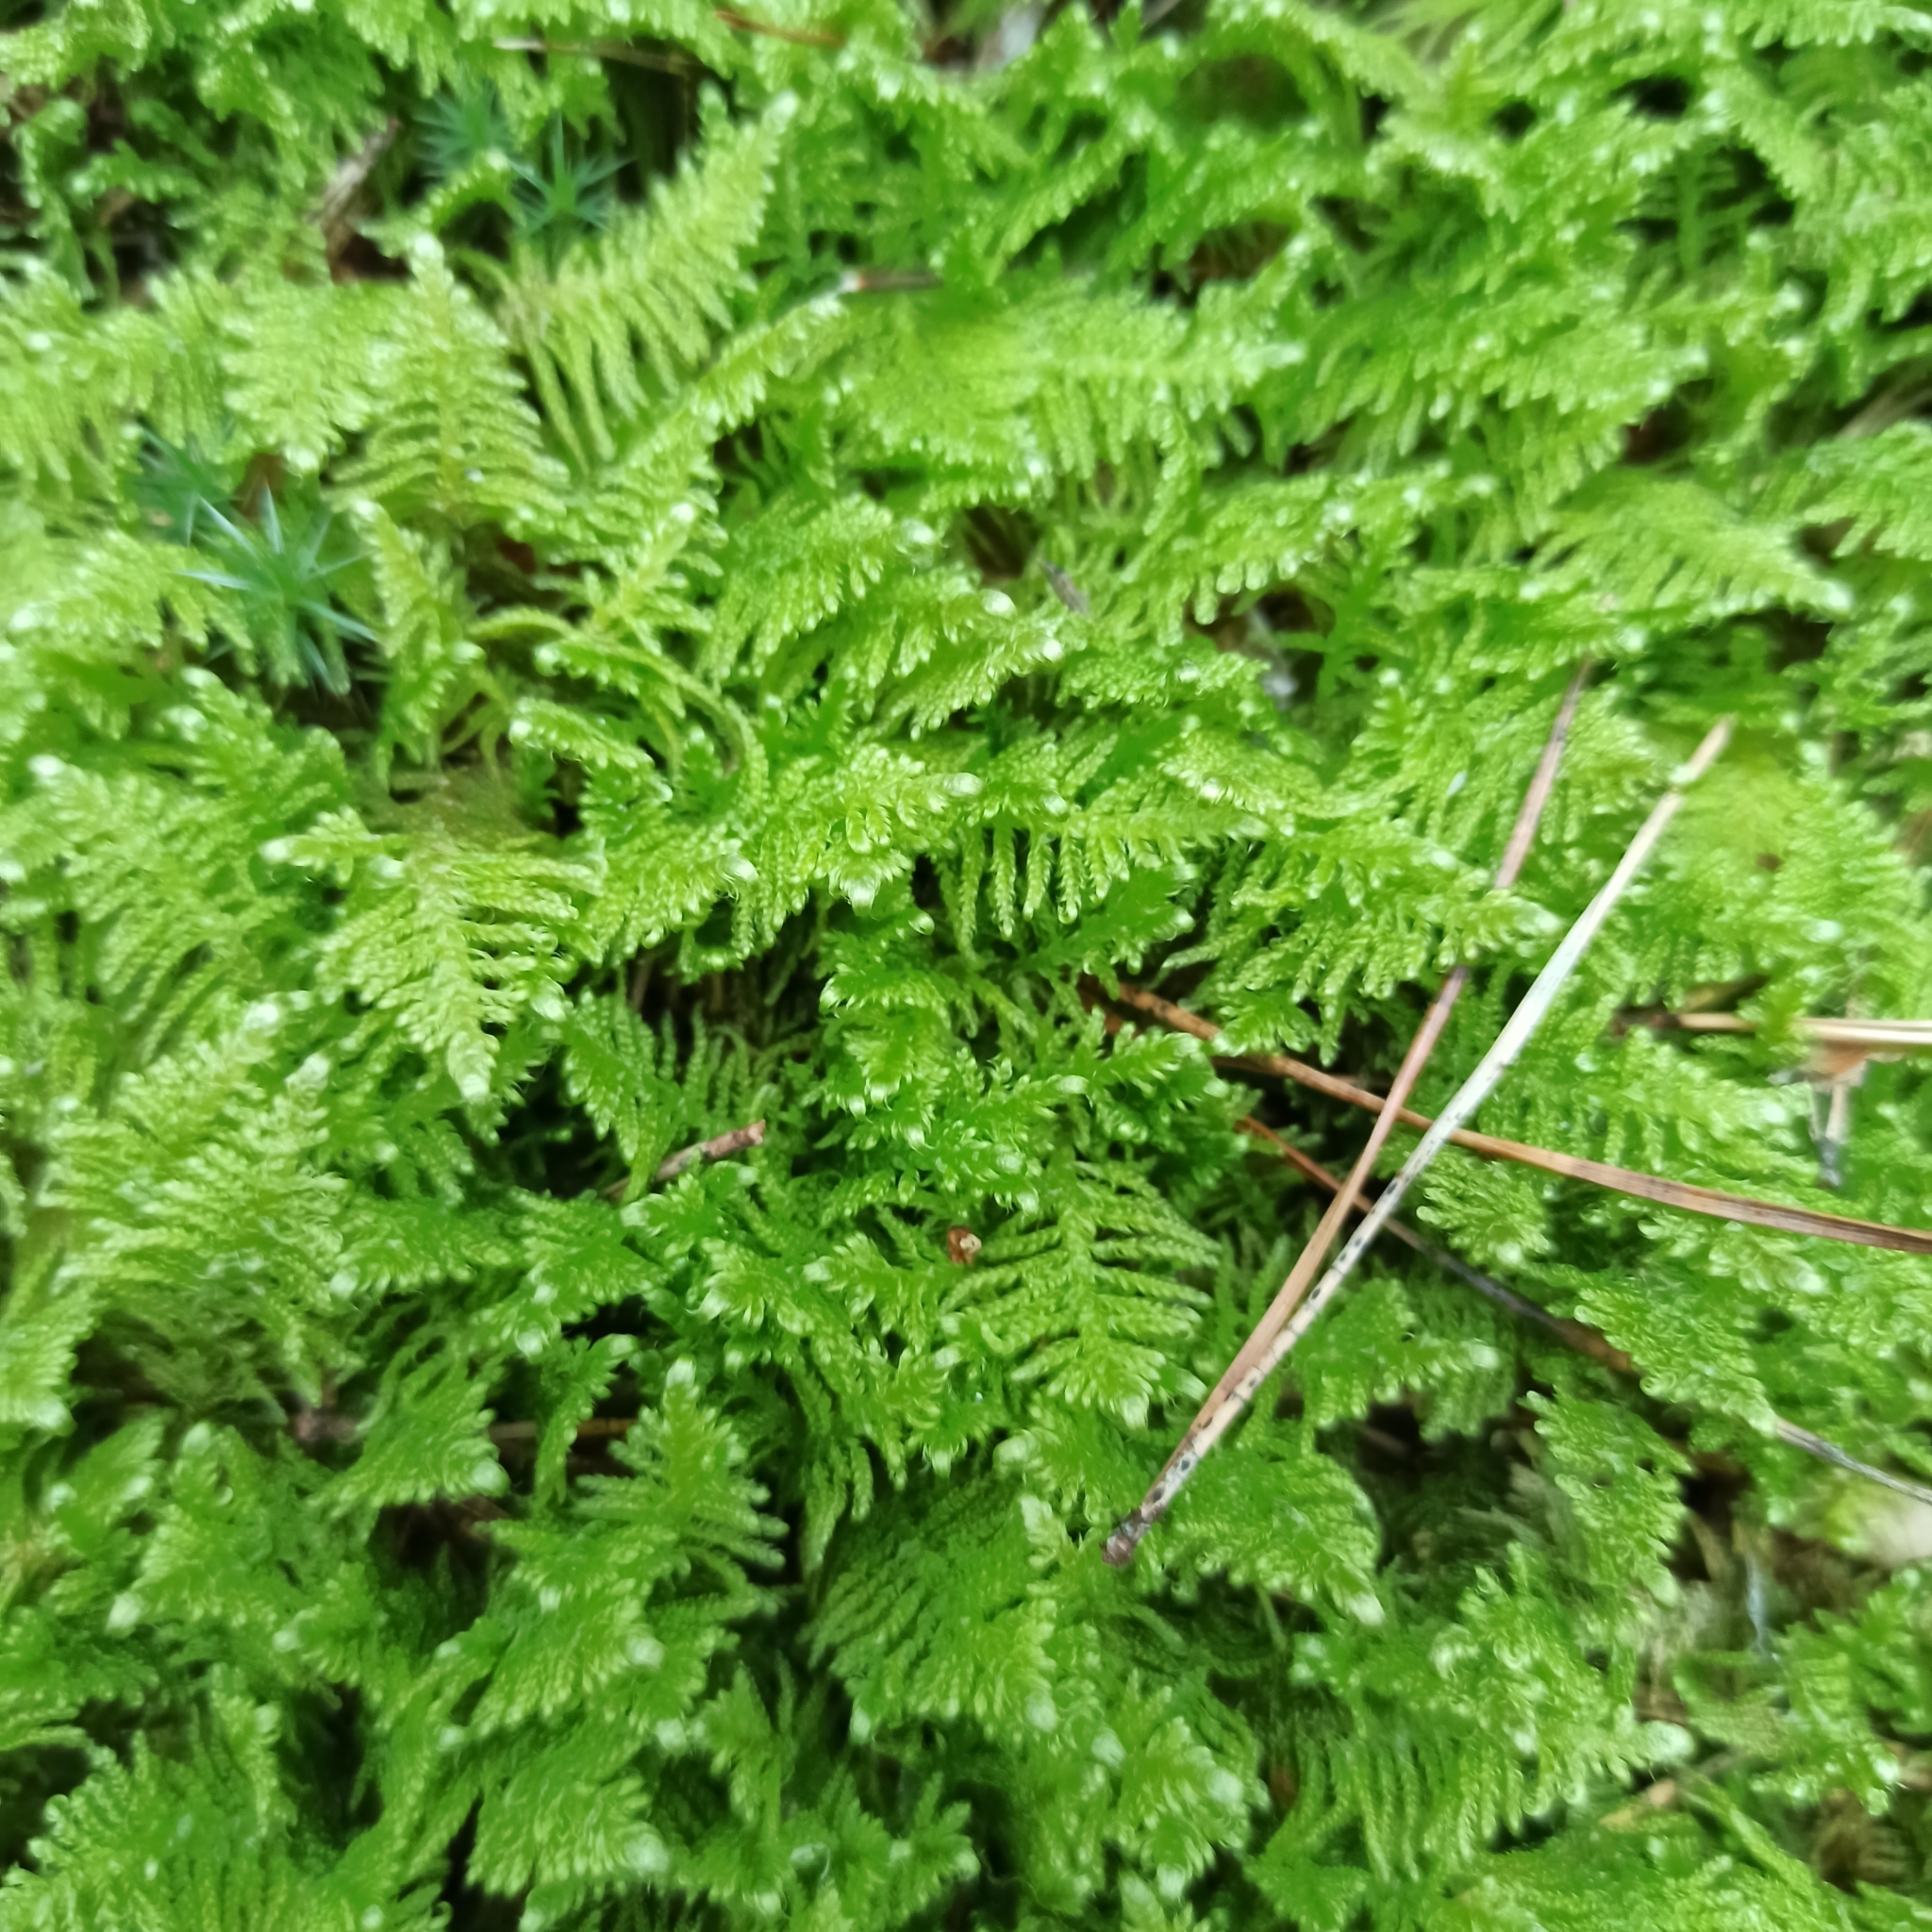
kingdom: Plantae
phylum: Bryophyta
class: Bryopsida
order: Hypnales
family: Pylaisiaceae
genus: Ptilium
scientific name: Ptilium crista-castrensis
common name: Knight's plume moss
